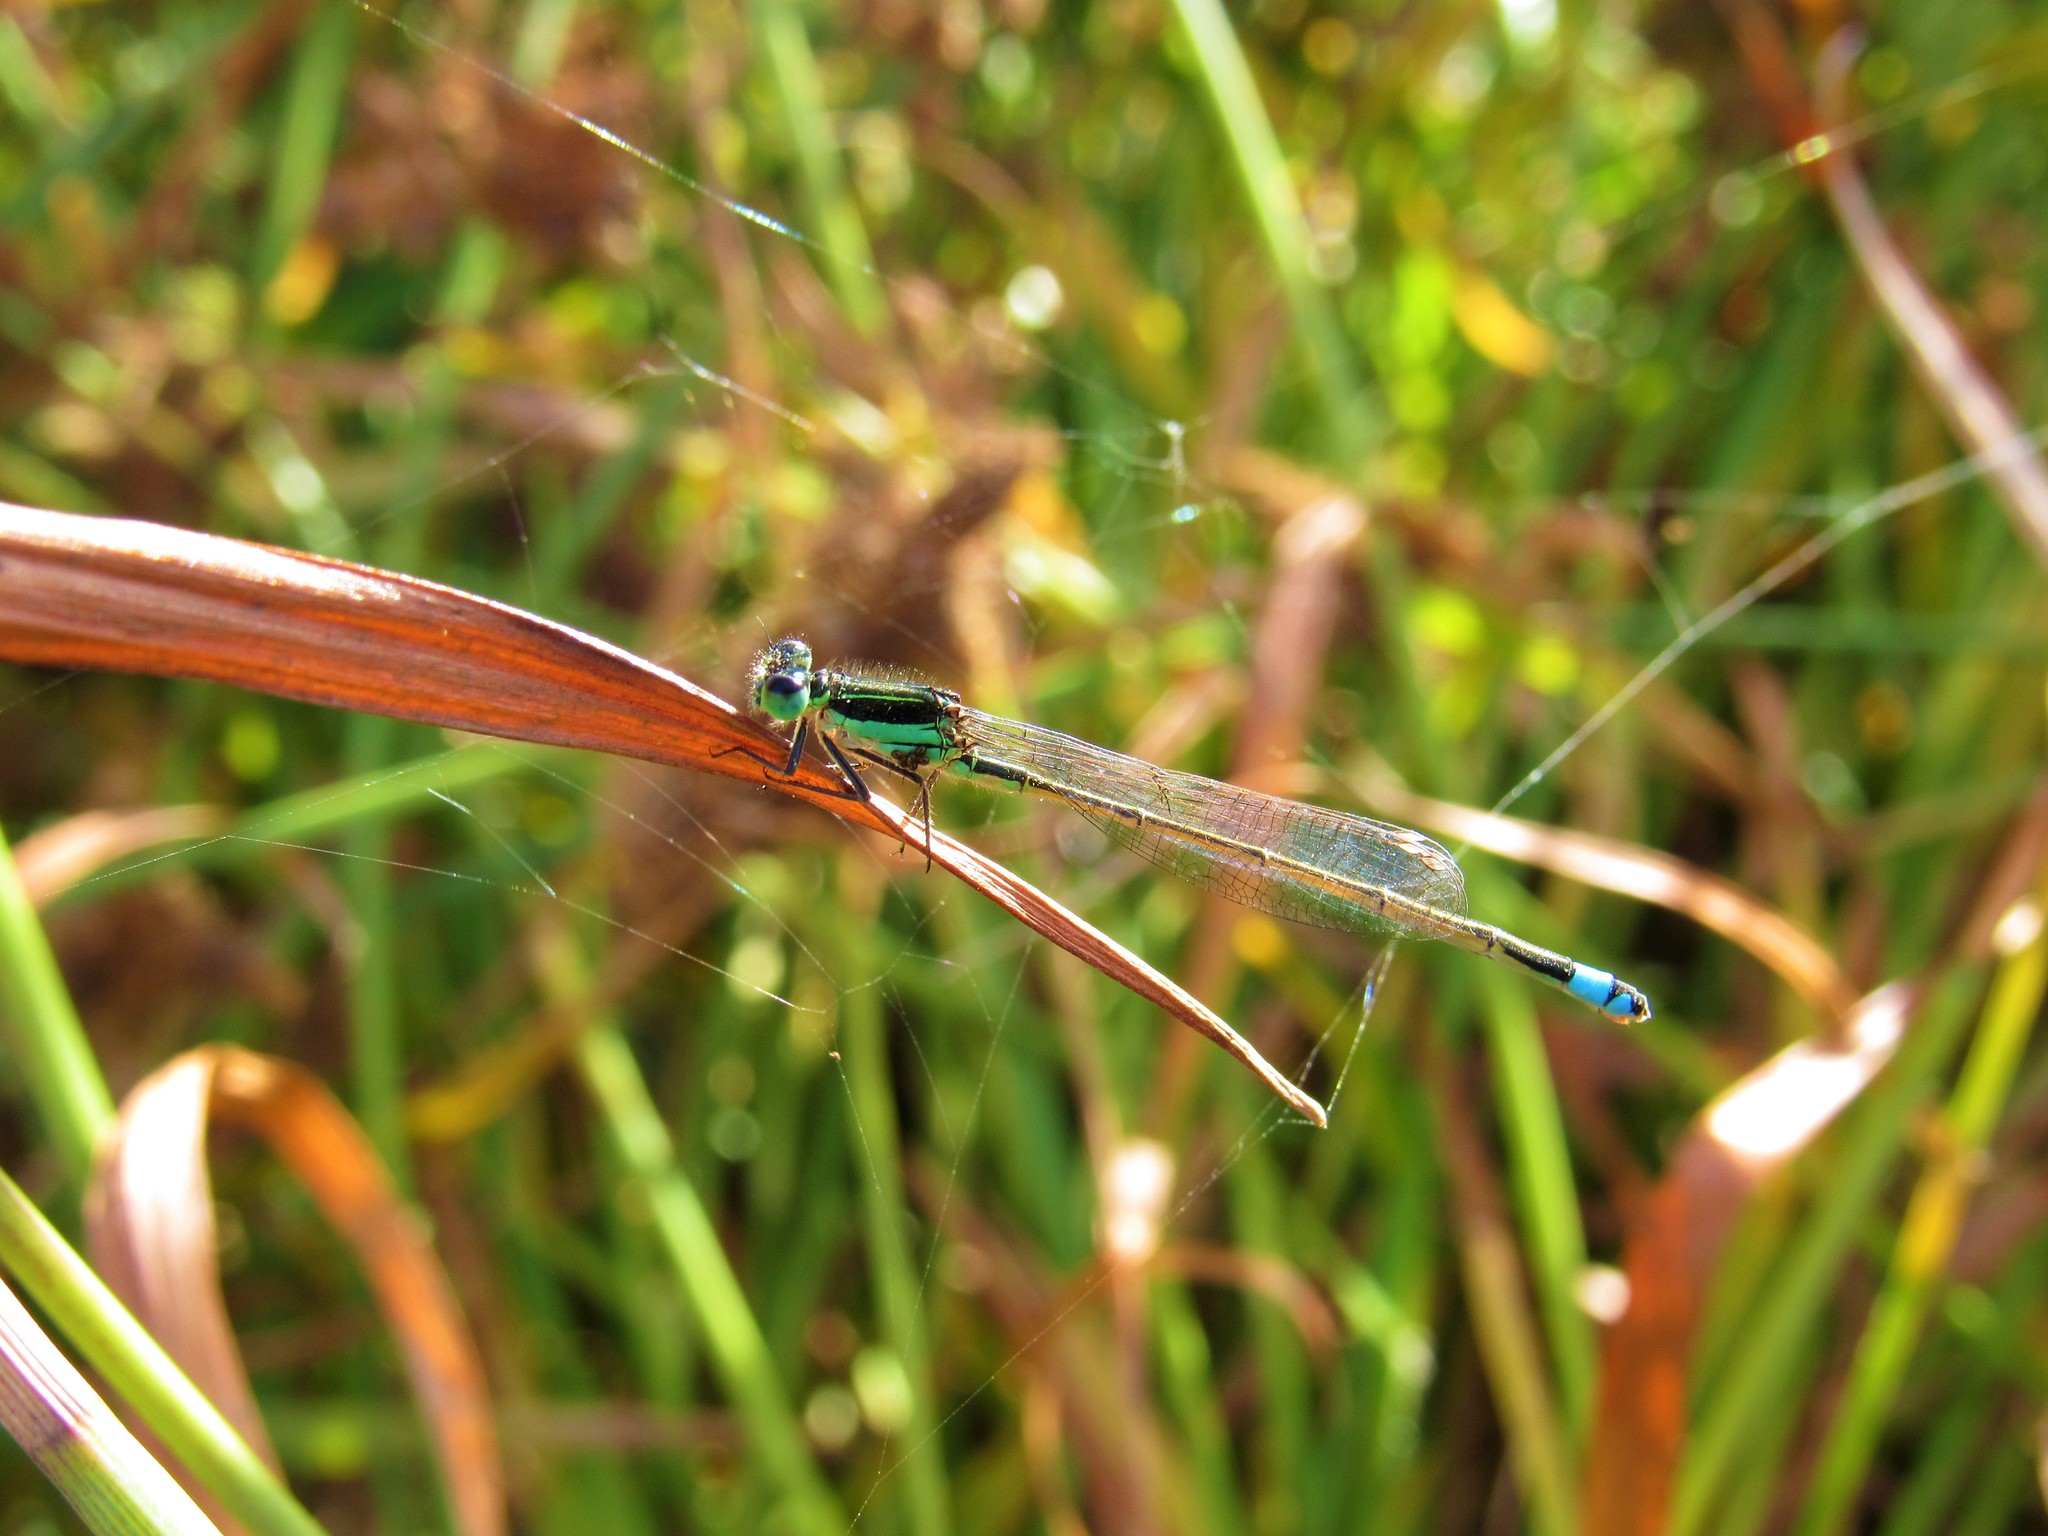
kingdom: Animalia
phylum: Arthropoda
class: Insecta
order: Odonata
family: Coenagrionidae
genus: Ischnura
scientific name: Ischnura ramburii
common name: Rambur's forktail
